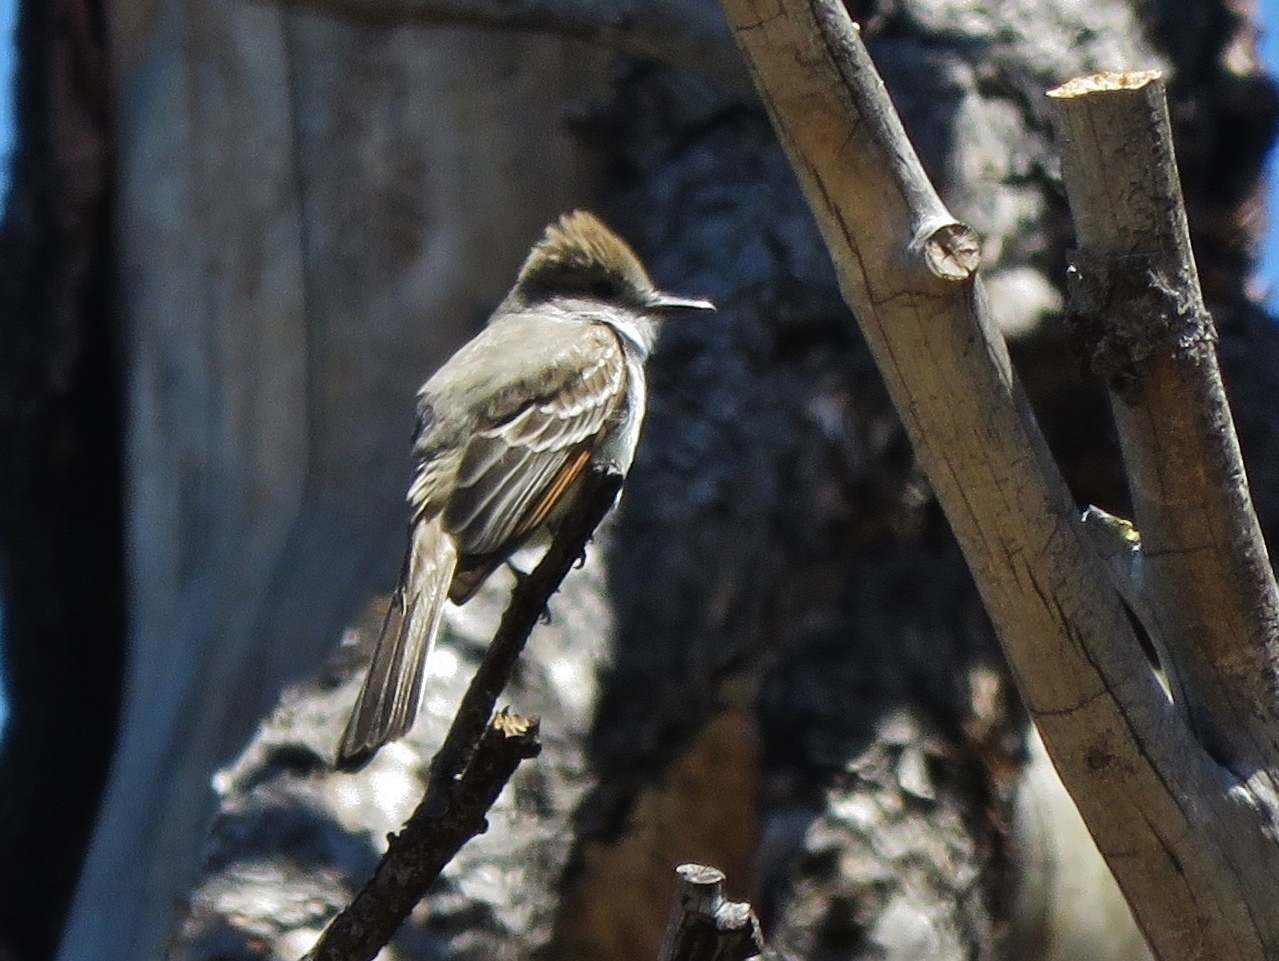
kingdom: Animalia
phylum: Chordata
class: Aves
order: Passeriformes
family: Tyrannidae
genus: Myiarchus
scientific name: Myiarchus cinerascens
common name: Ash-throated flycatcher
